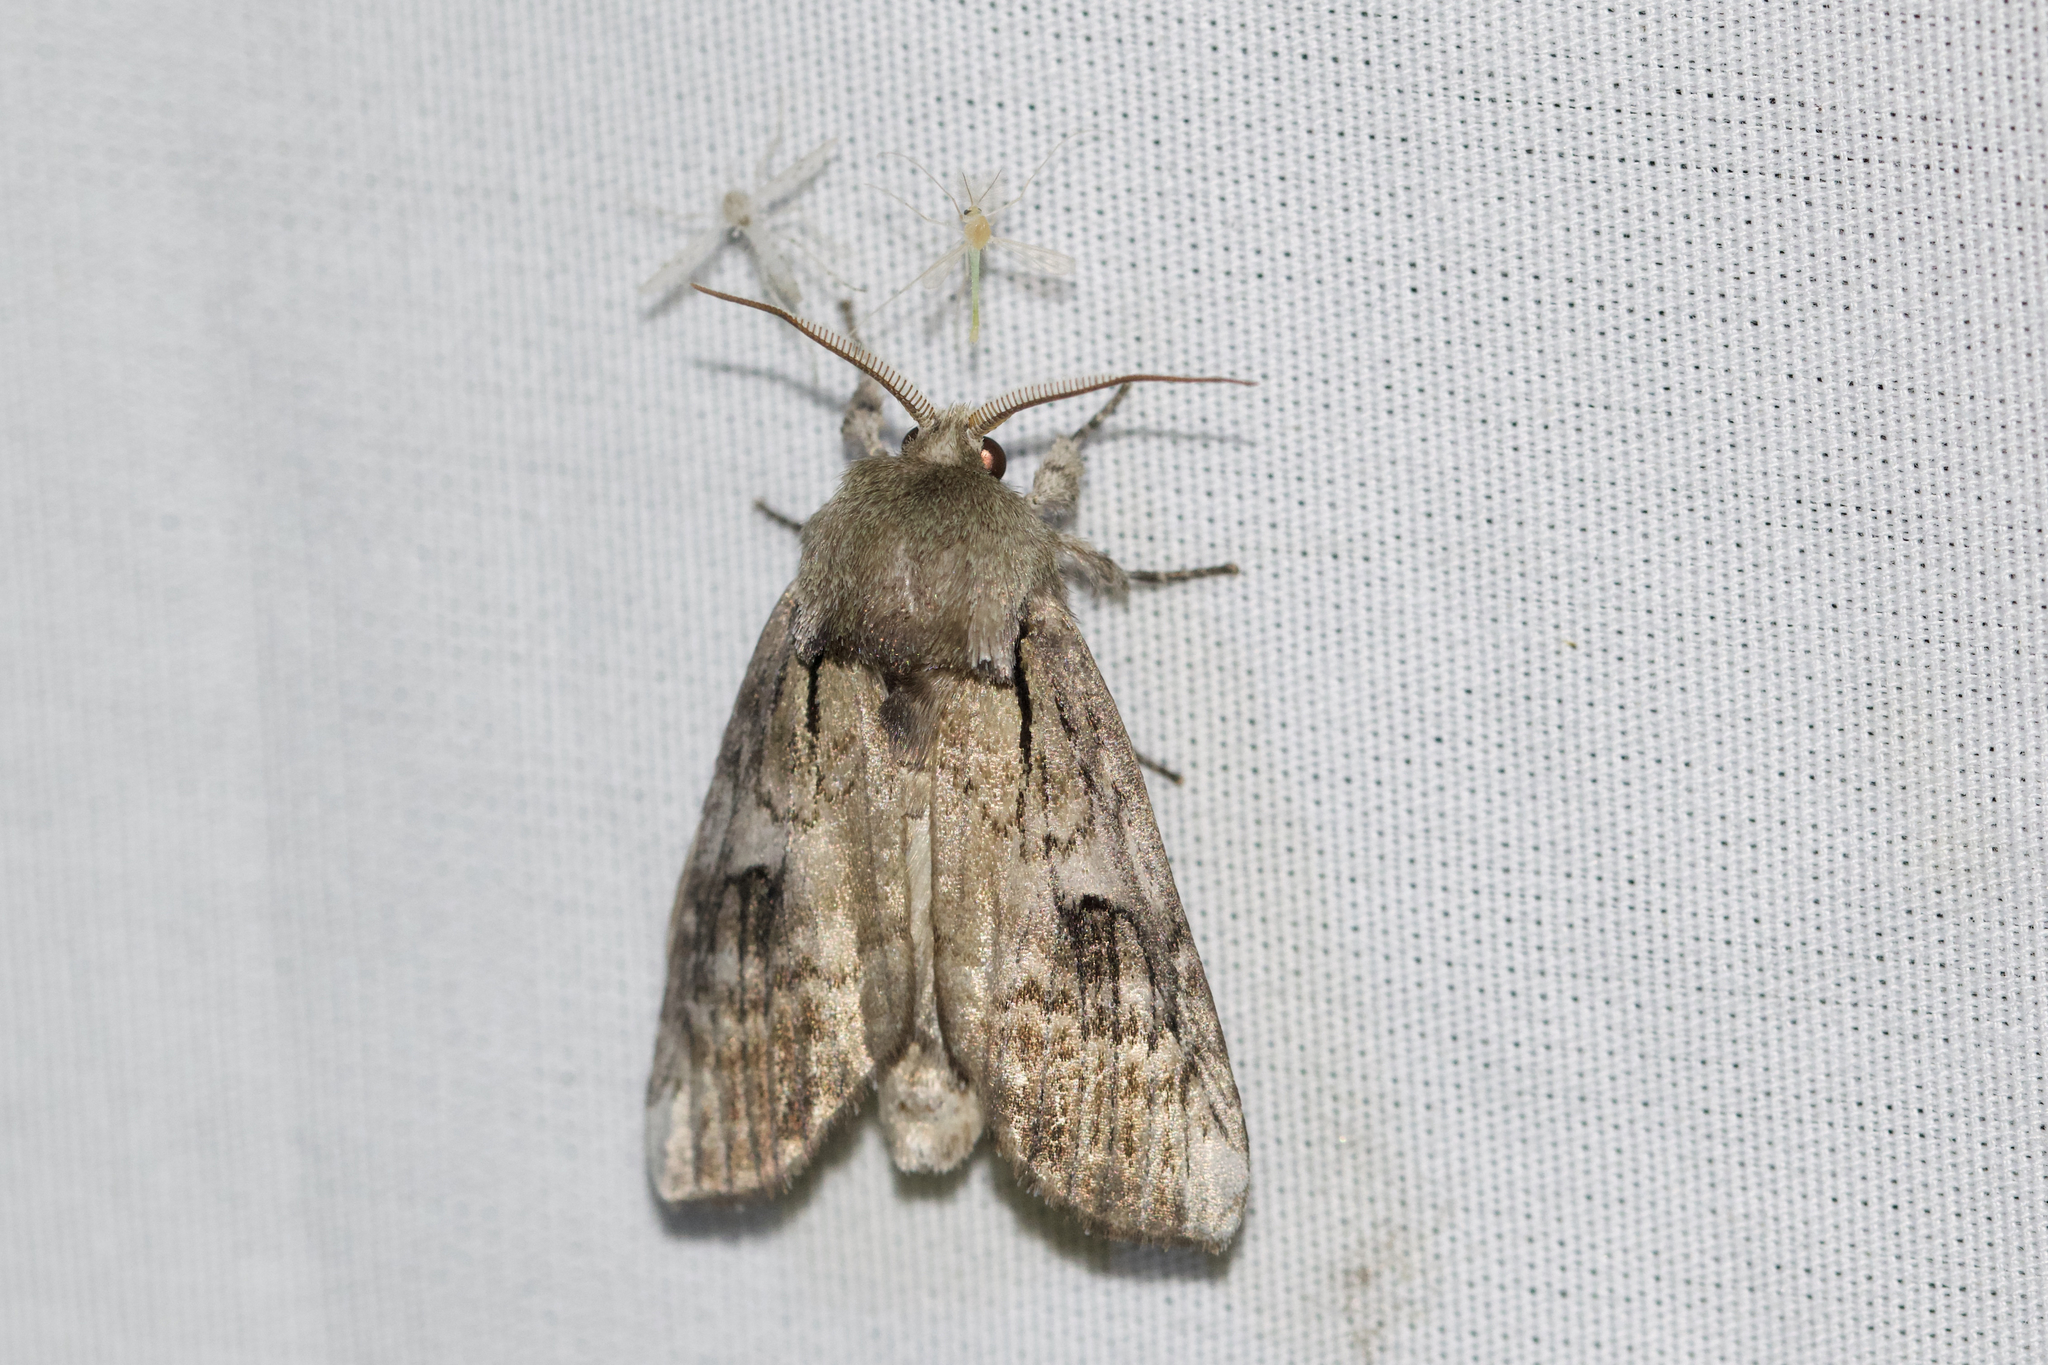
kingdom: Animalia
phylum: Arthropoda
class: Insecta
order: Lepidoptera
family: Notodontidae
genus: Schizura
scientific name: Schizura
